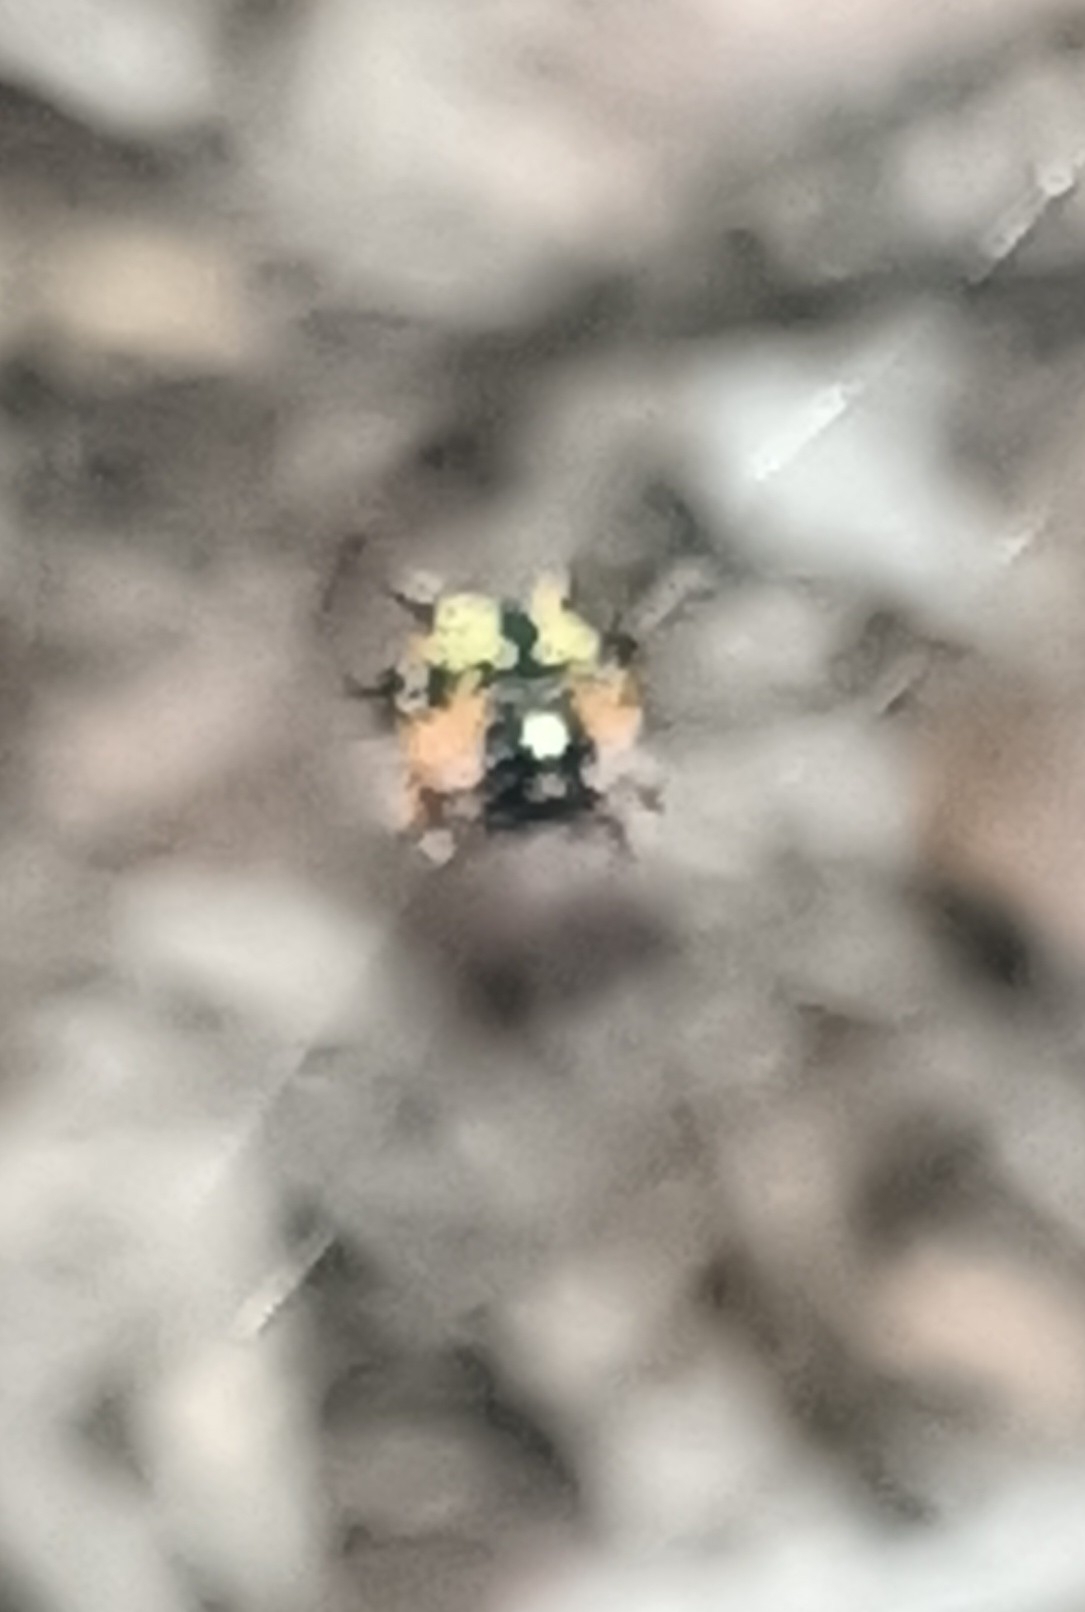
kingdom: Animalia
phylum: Arthropoda
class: Arachnida
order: Araneae
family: Araneidae
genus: Austracantha
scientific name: Austracantha minax
